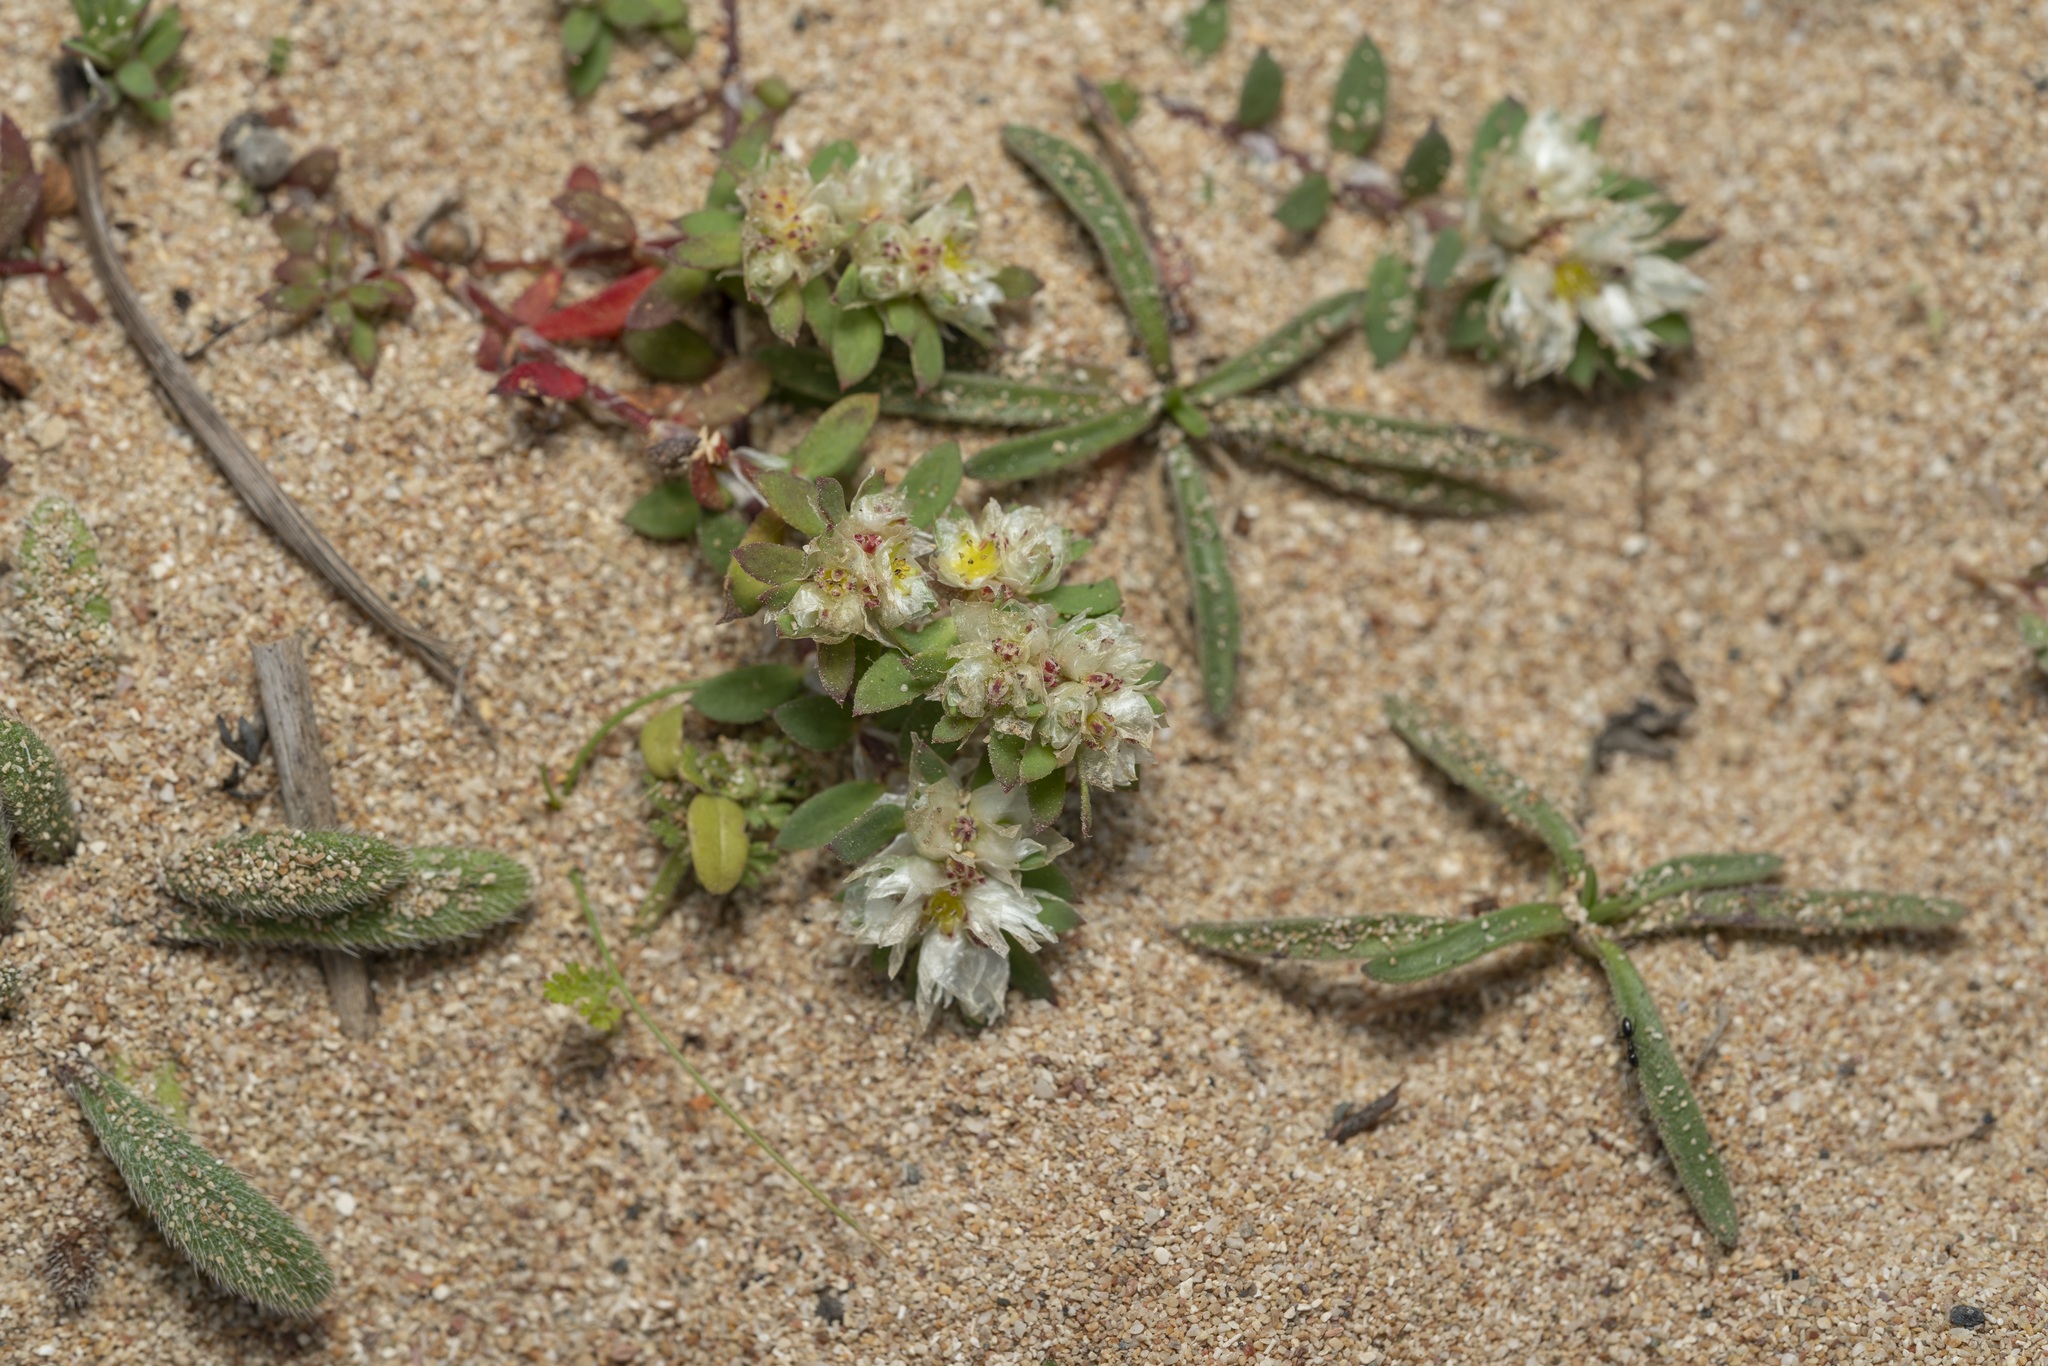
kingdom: Plantae
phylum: Tracheophyta
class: Magnoliopsida
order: Caryophyllales
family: Caryophyllaceae
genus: Paronychia
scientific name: Paronychia argentea
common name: Silver nailroot
